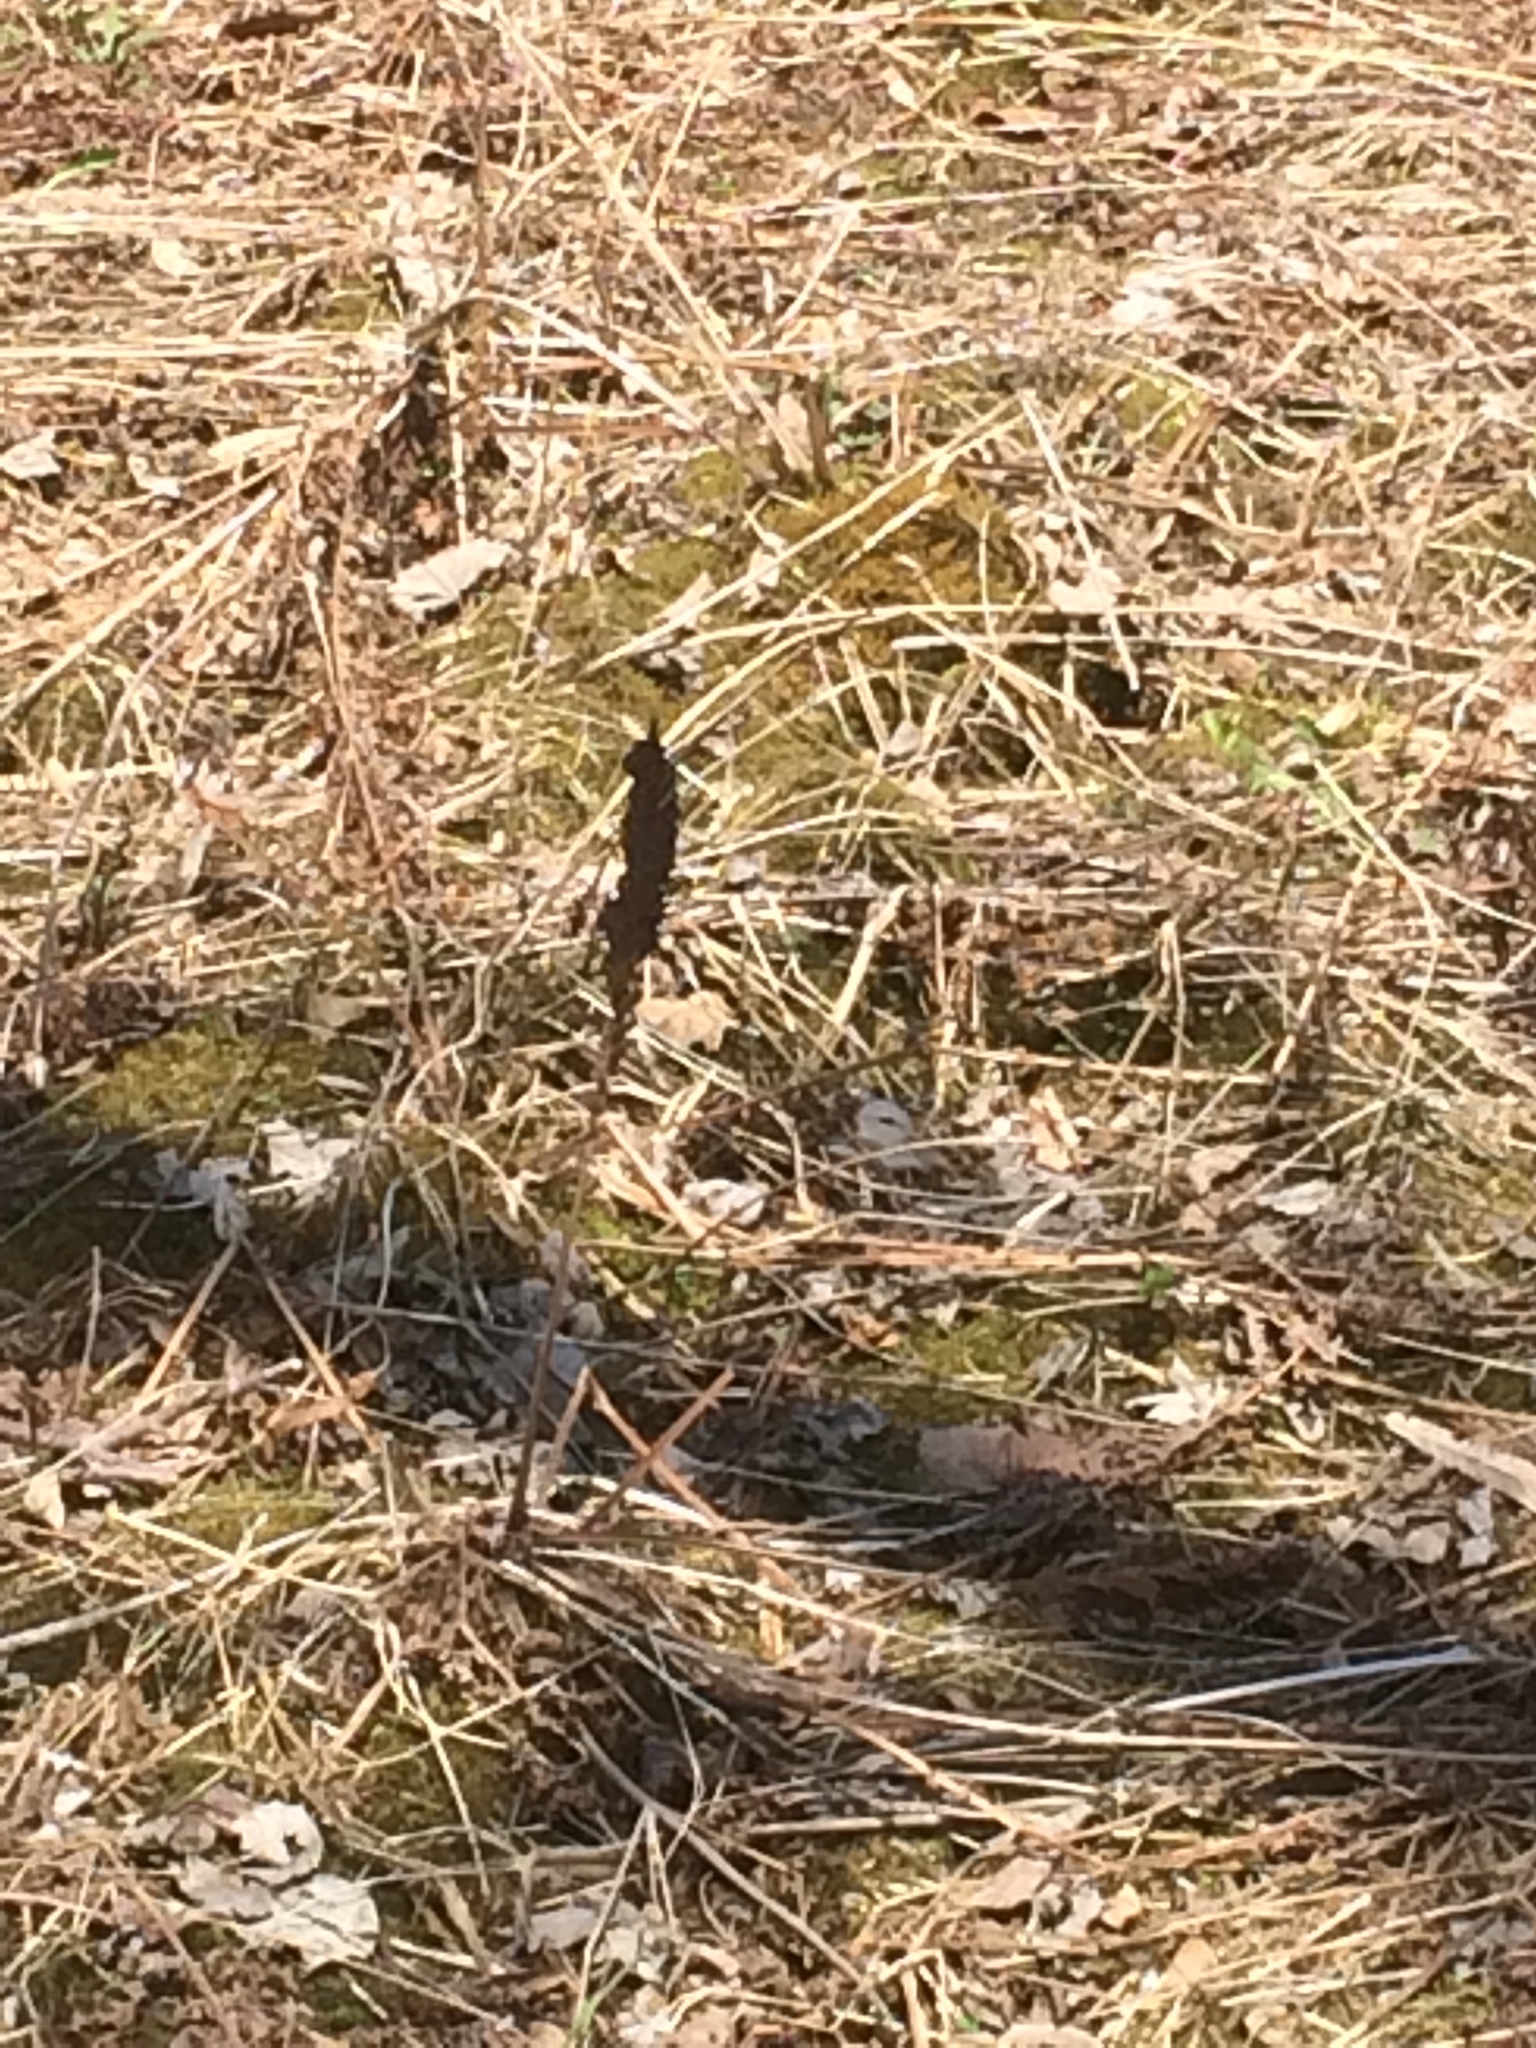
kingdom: Plantae
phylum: Tracheophyta
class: Polypodiopsida
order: Polypodiales
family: Onocleaceae
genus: Matteuccia
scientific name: Matteuccia struthiopteris
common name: Ostrich fern
